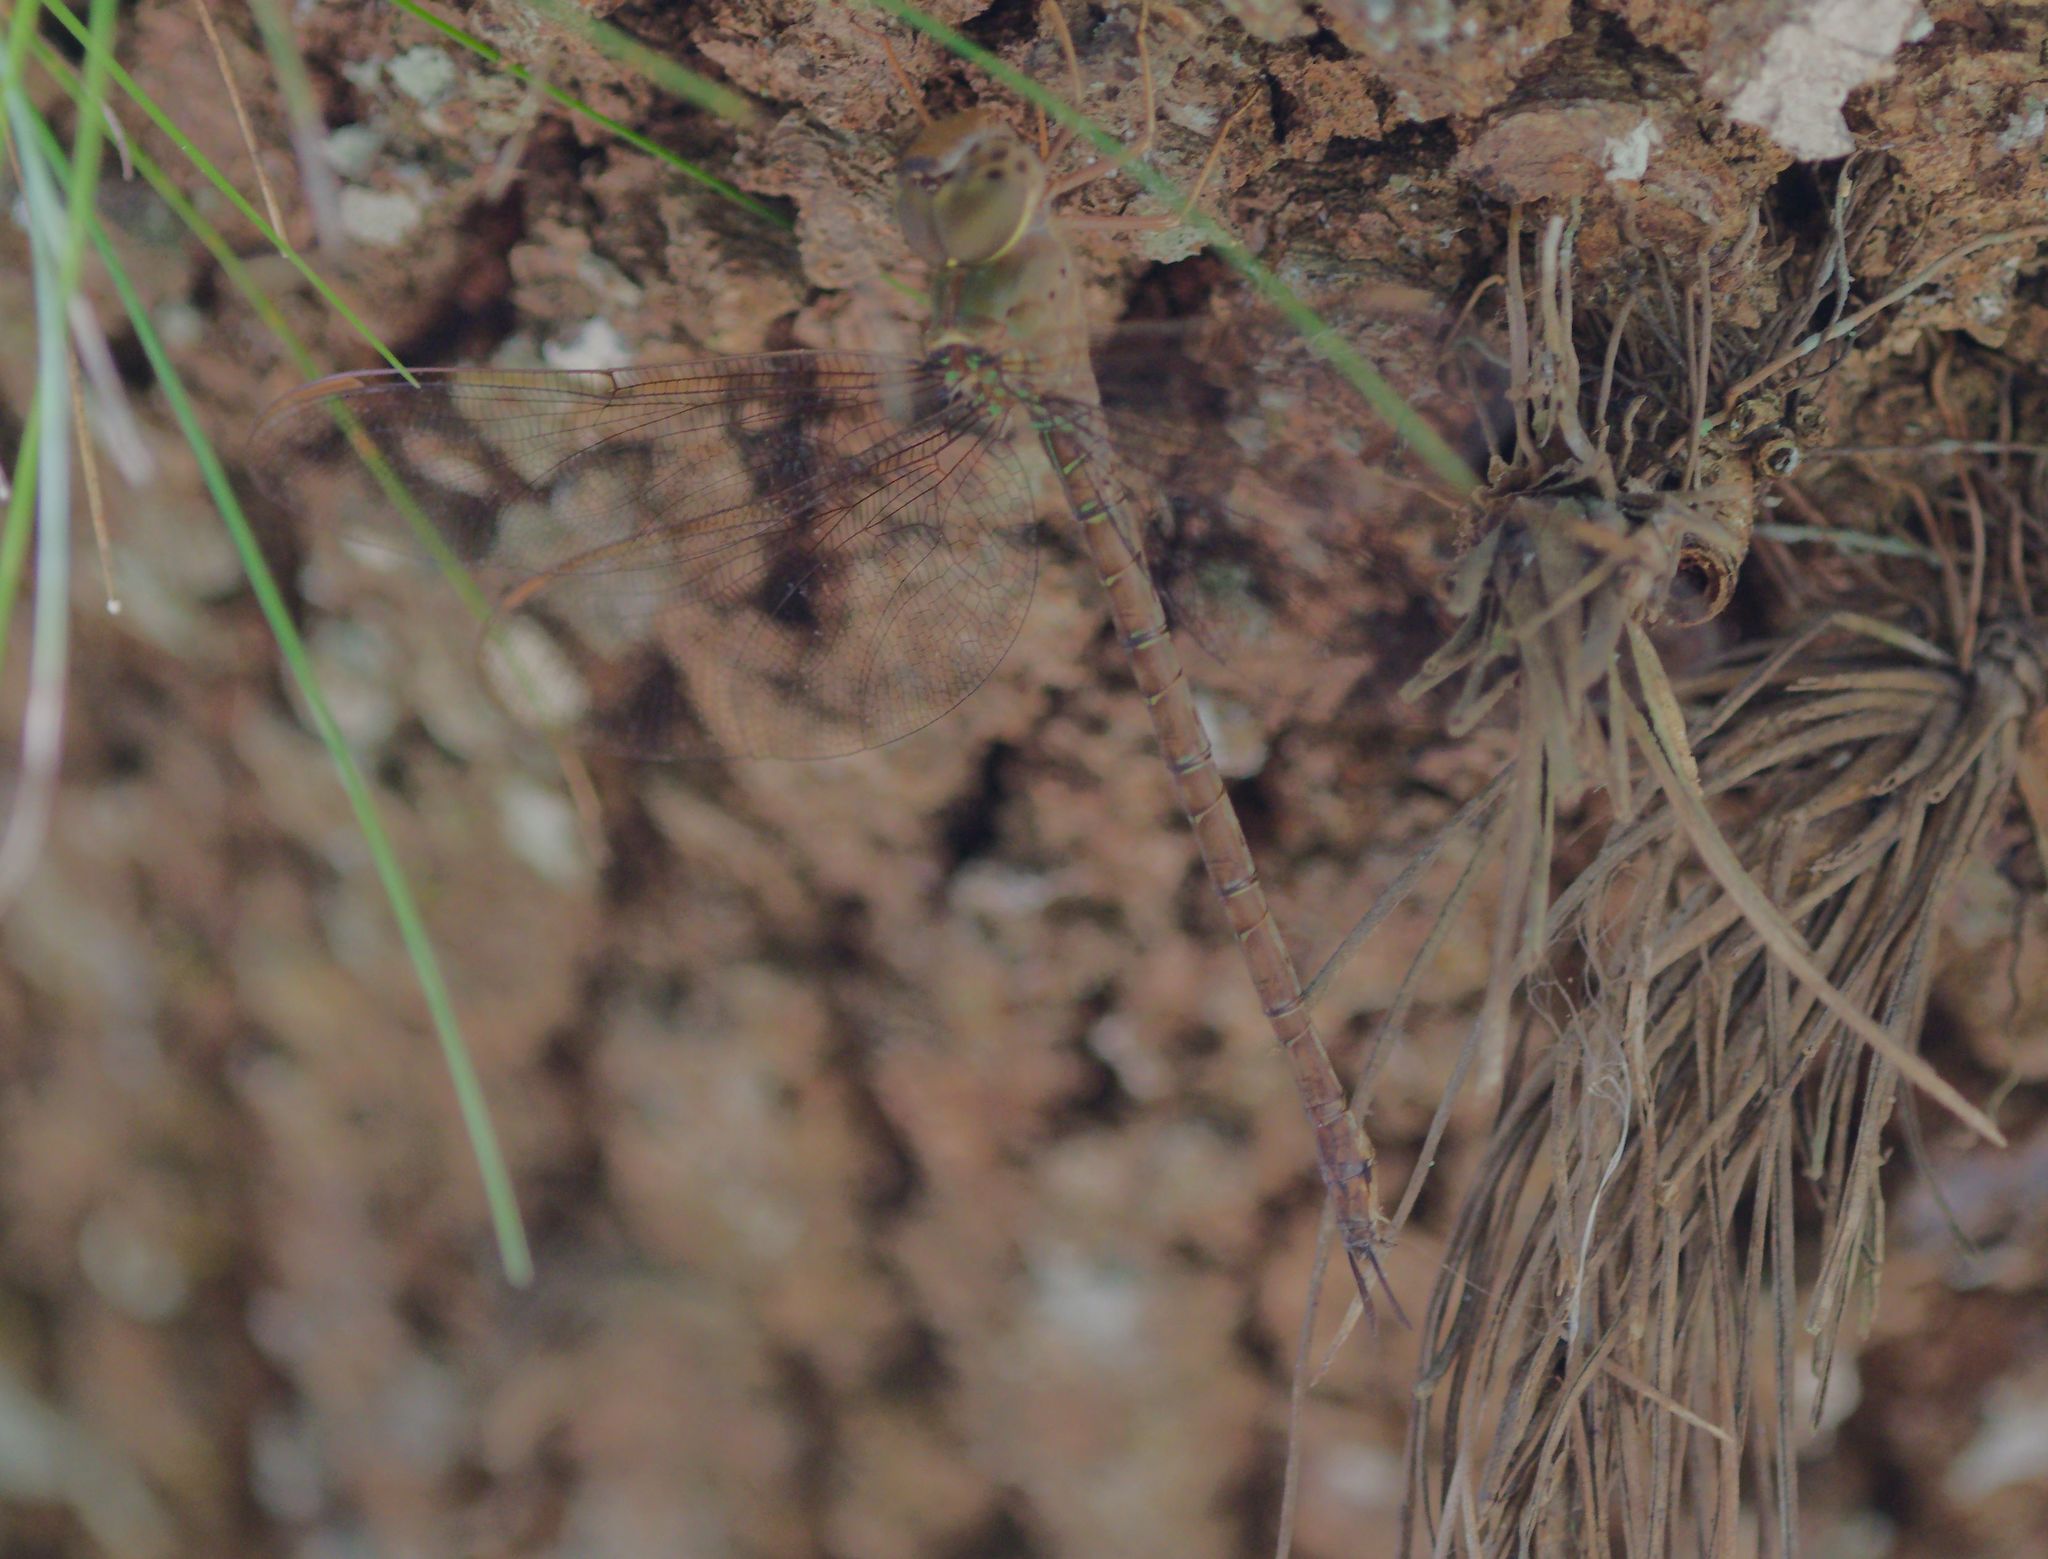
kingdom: Animalia
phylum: Arthropoda
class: Insecta
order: Odonata
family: Aeshnidae
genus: Gynacantha
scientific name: Gynacantha nervosa
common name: Twilight darner
